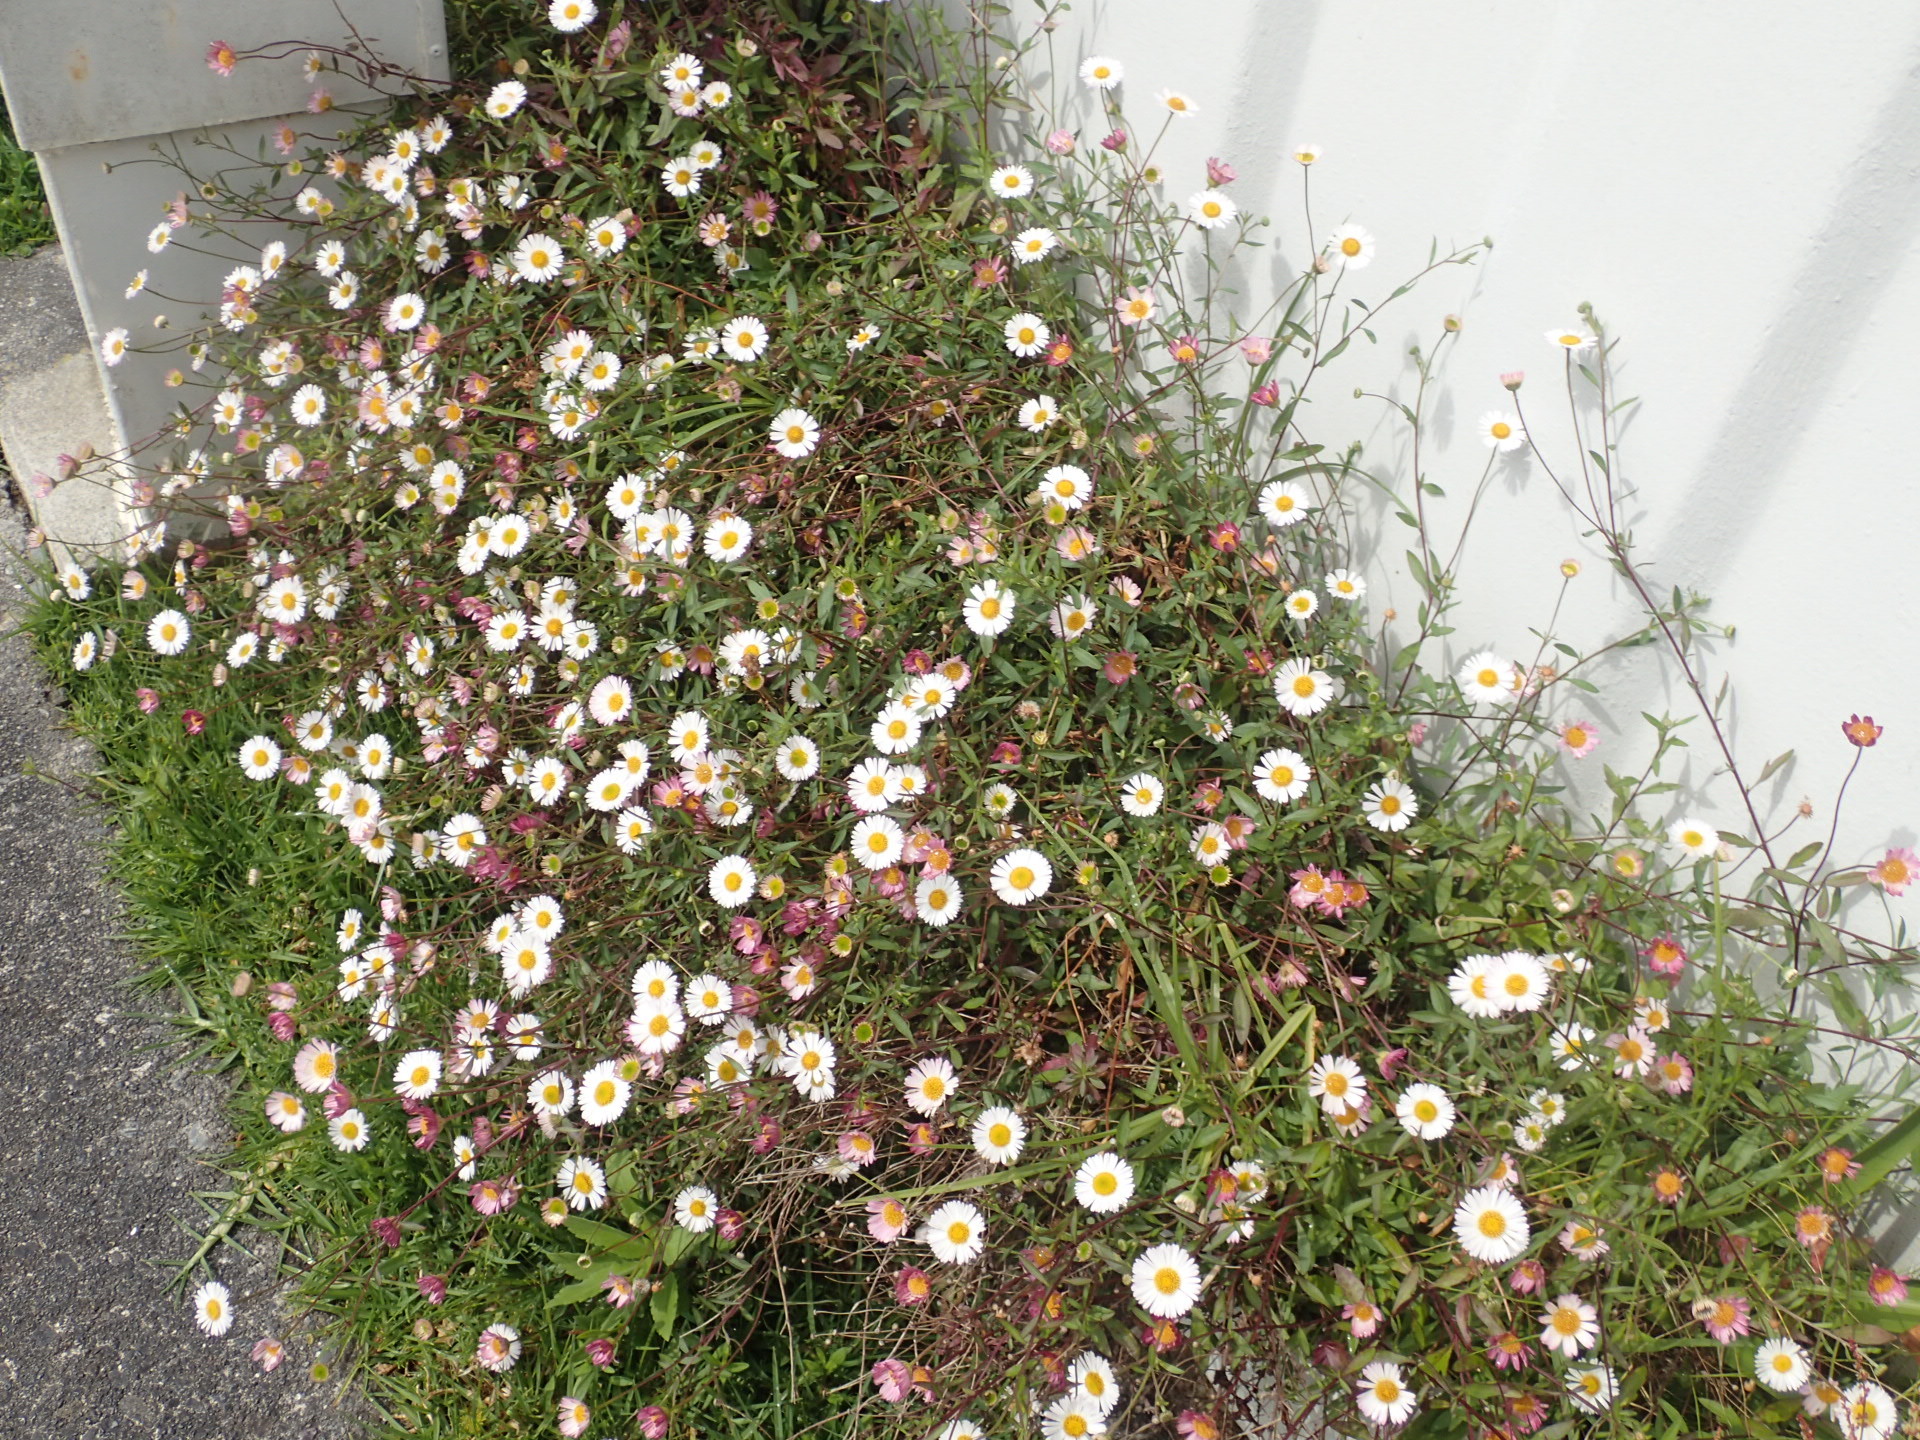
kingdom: Plantae
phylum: Tracheophyta
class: Magnoliopsida
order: Asterales
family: Asteraceae
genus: Erigeron
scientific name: Erigeron karvinskianus
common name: Mexican fleabane
